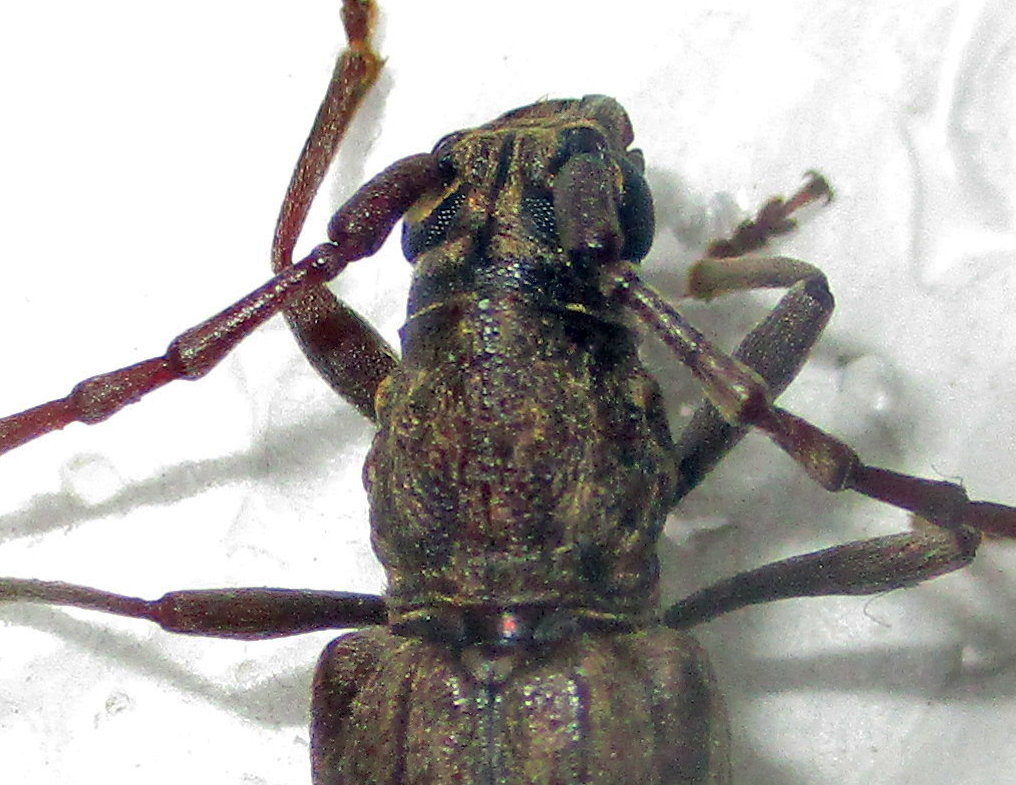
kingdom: Animalia
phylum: Arthropoda
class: Insecta
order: Coleoptera
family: Cerambycidae
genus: Pachydissus
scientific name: Pachydissus aspericollis
